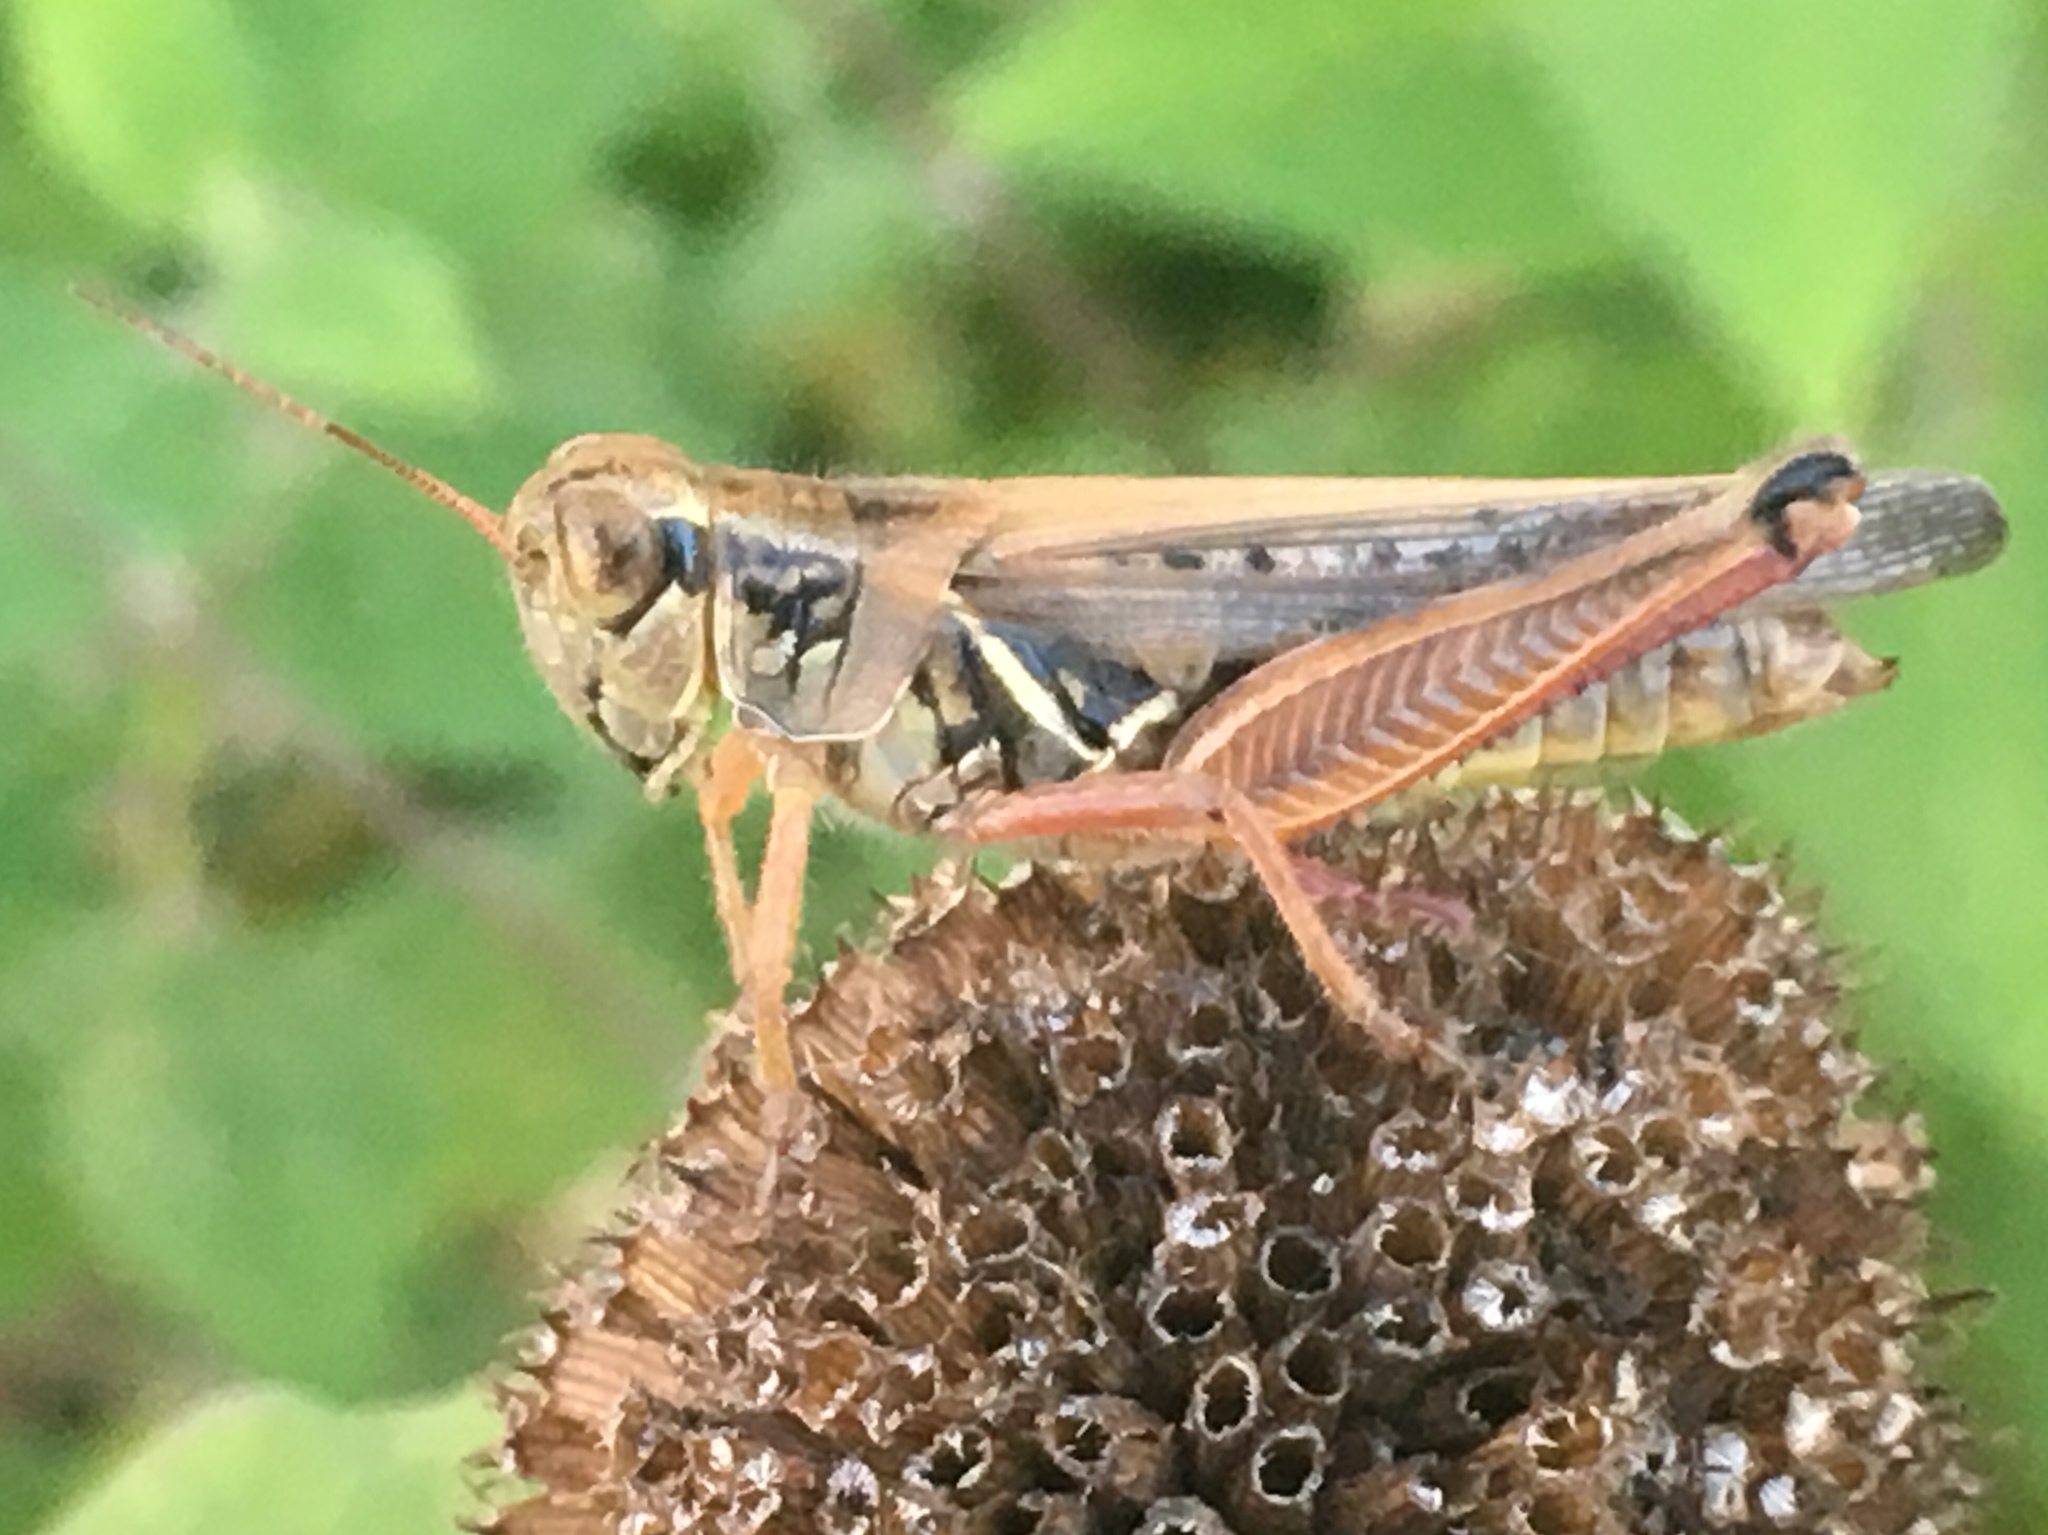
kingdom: Animalia
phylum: Arthropoda
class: Insecta
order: Orthoptera
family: Acrididae
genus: Melanoplus
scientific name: Melanoplus femurrubrum
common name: Red-legged grasshopper
